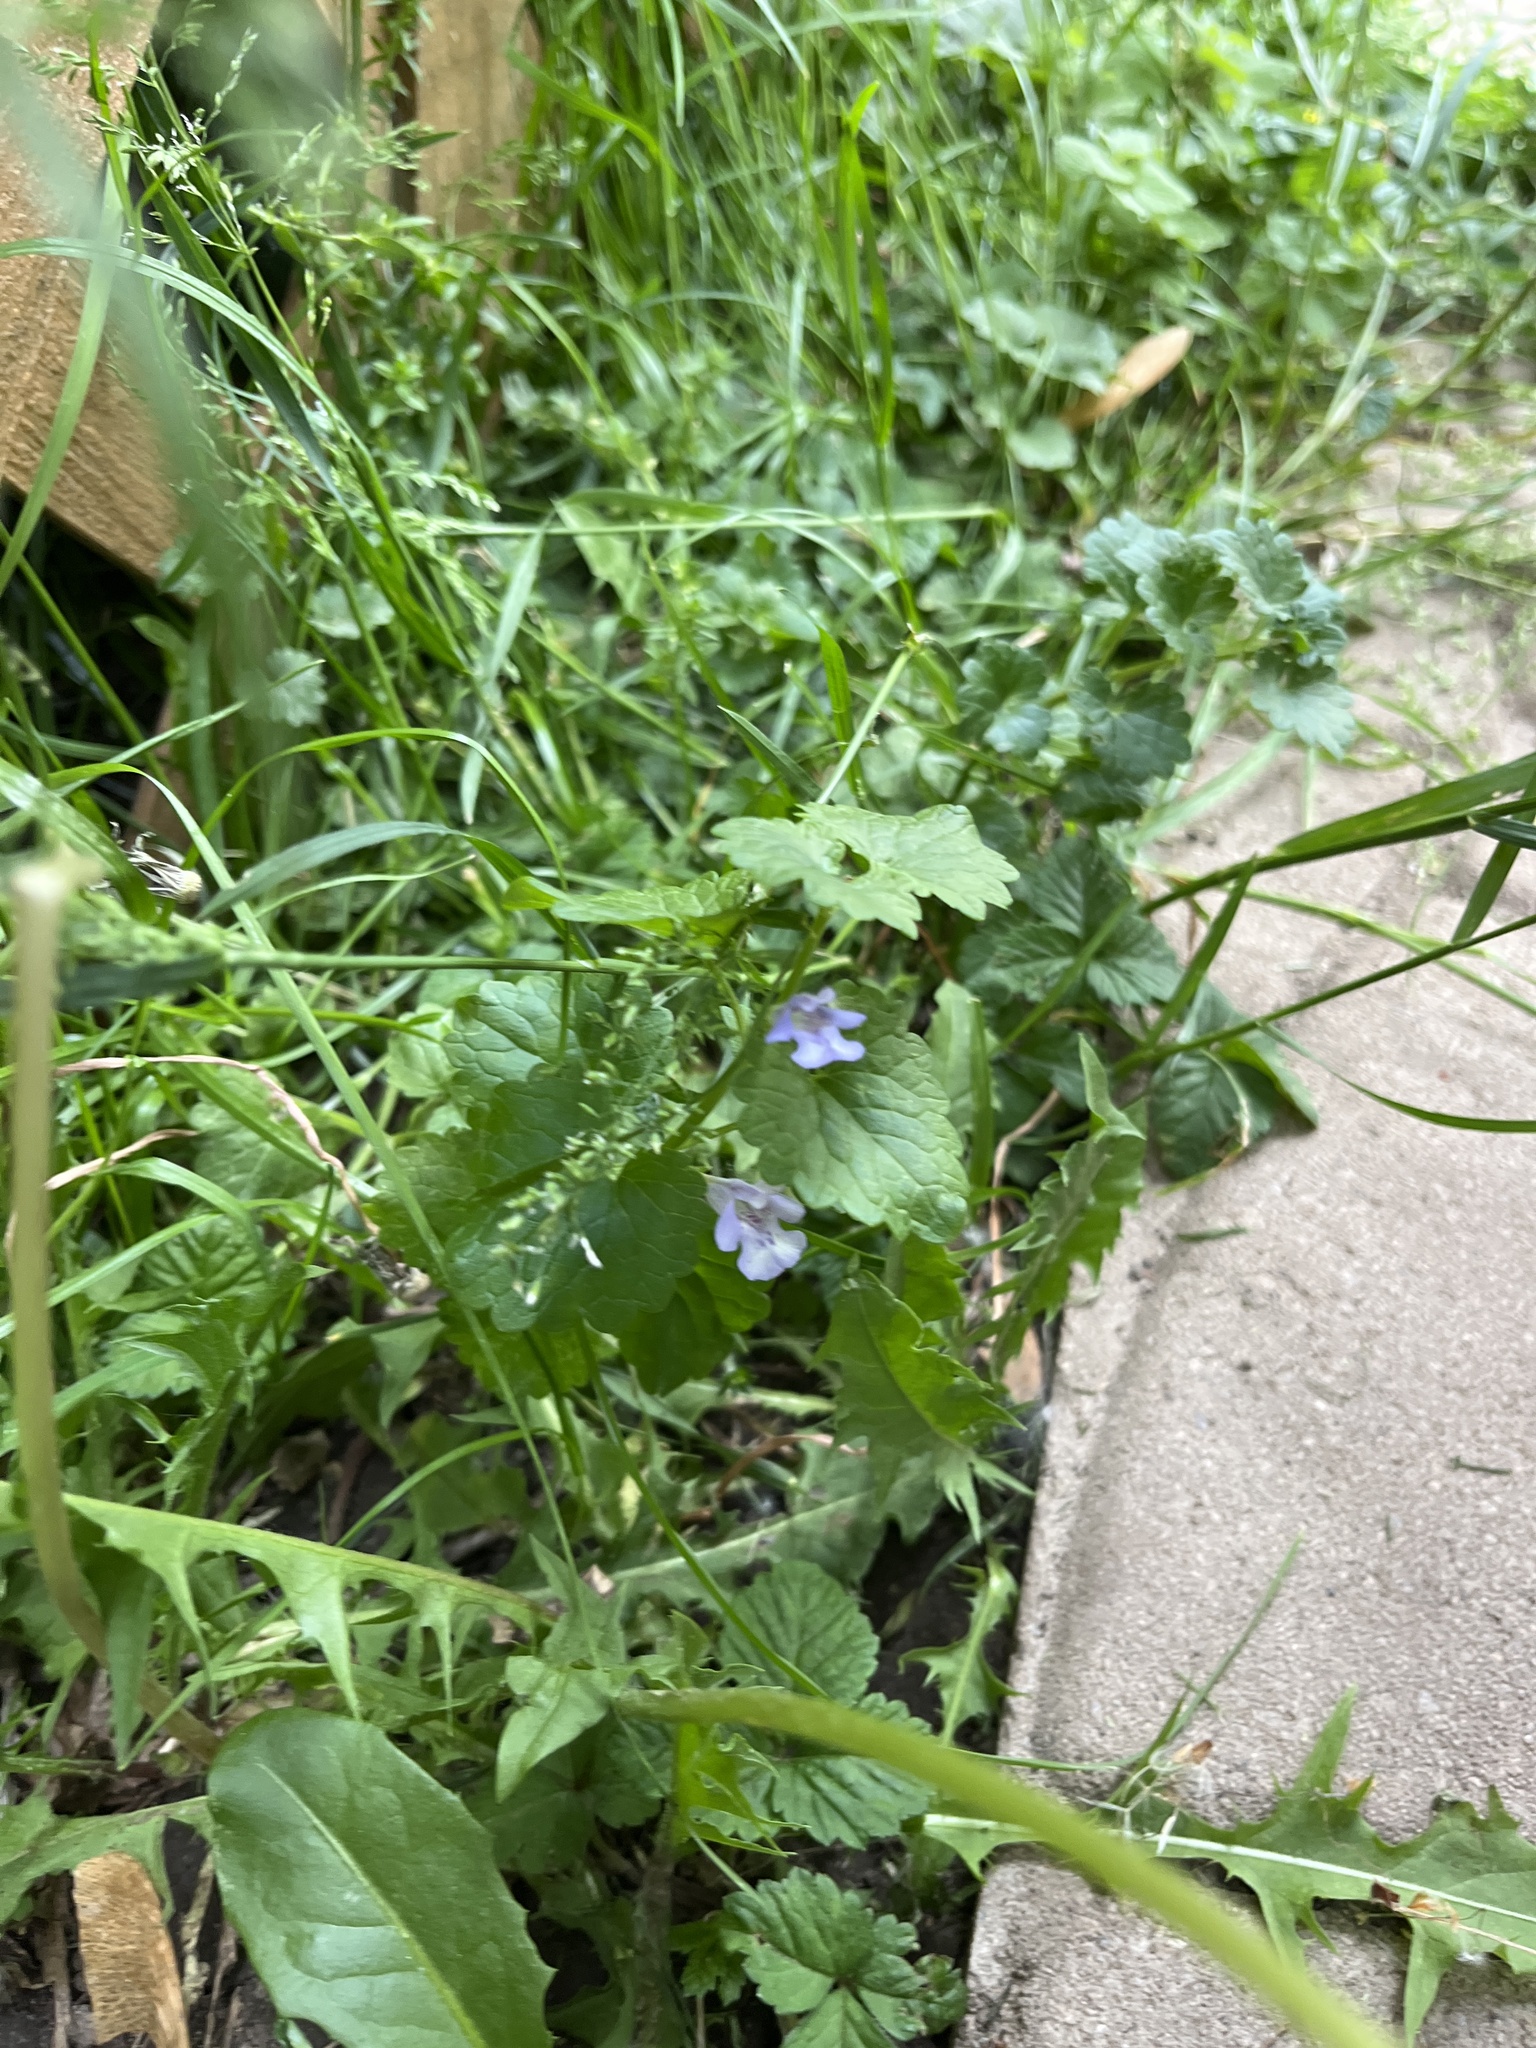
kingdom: Plantae
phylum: Tracheophyta
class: Magnoliopsida
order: Lamiales
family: Lamiaceae
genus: Glechoma
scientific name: Glechoma hederacea
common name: Ground ivy
